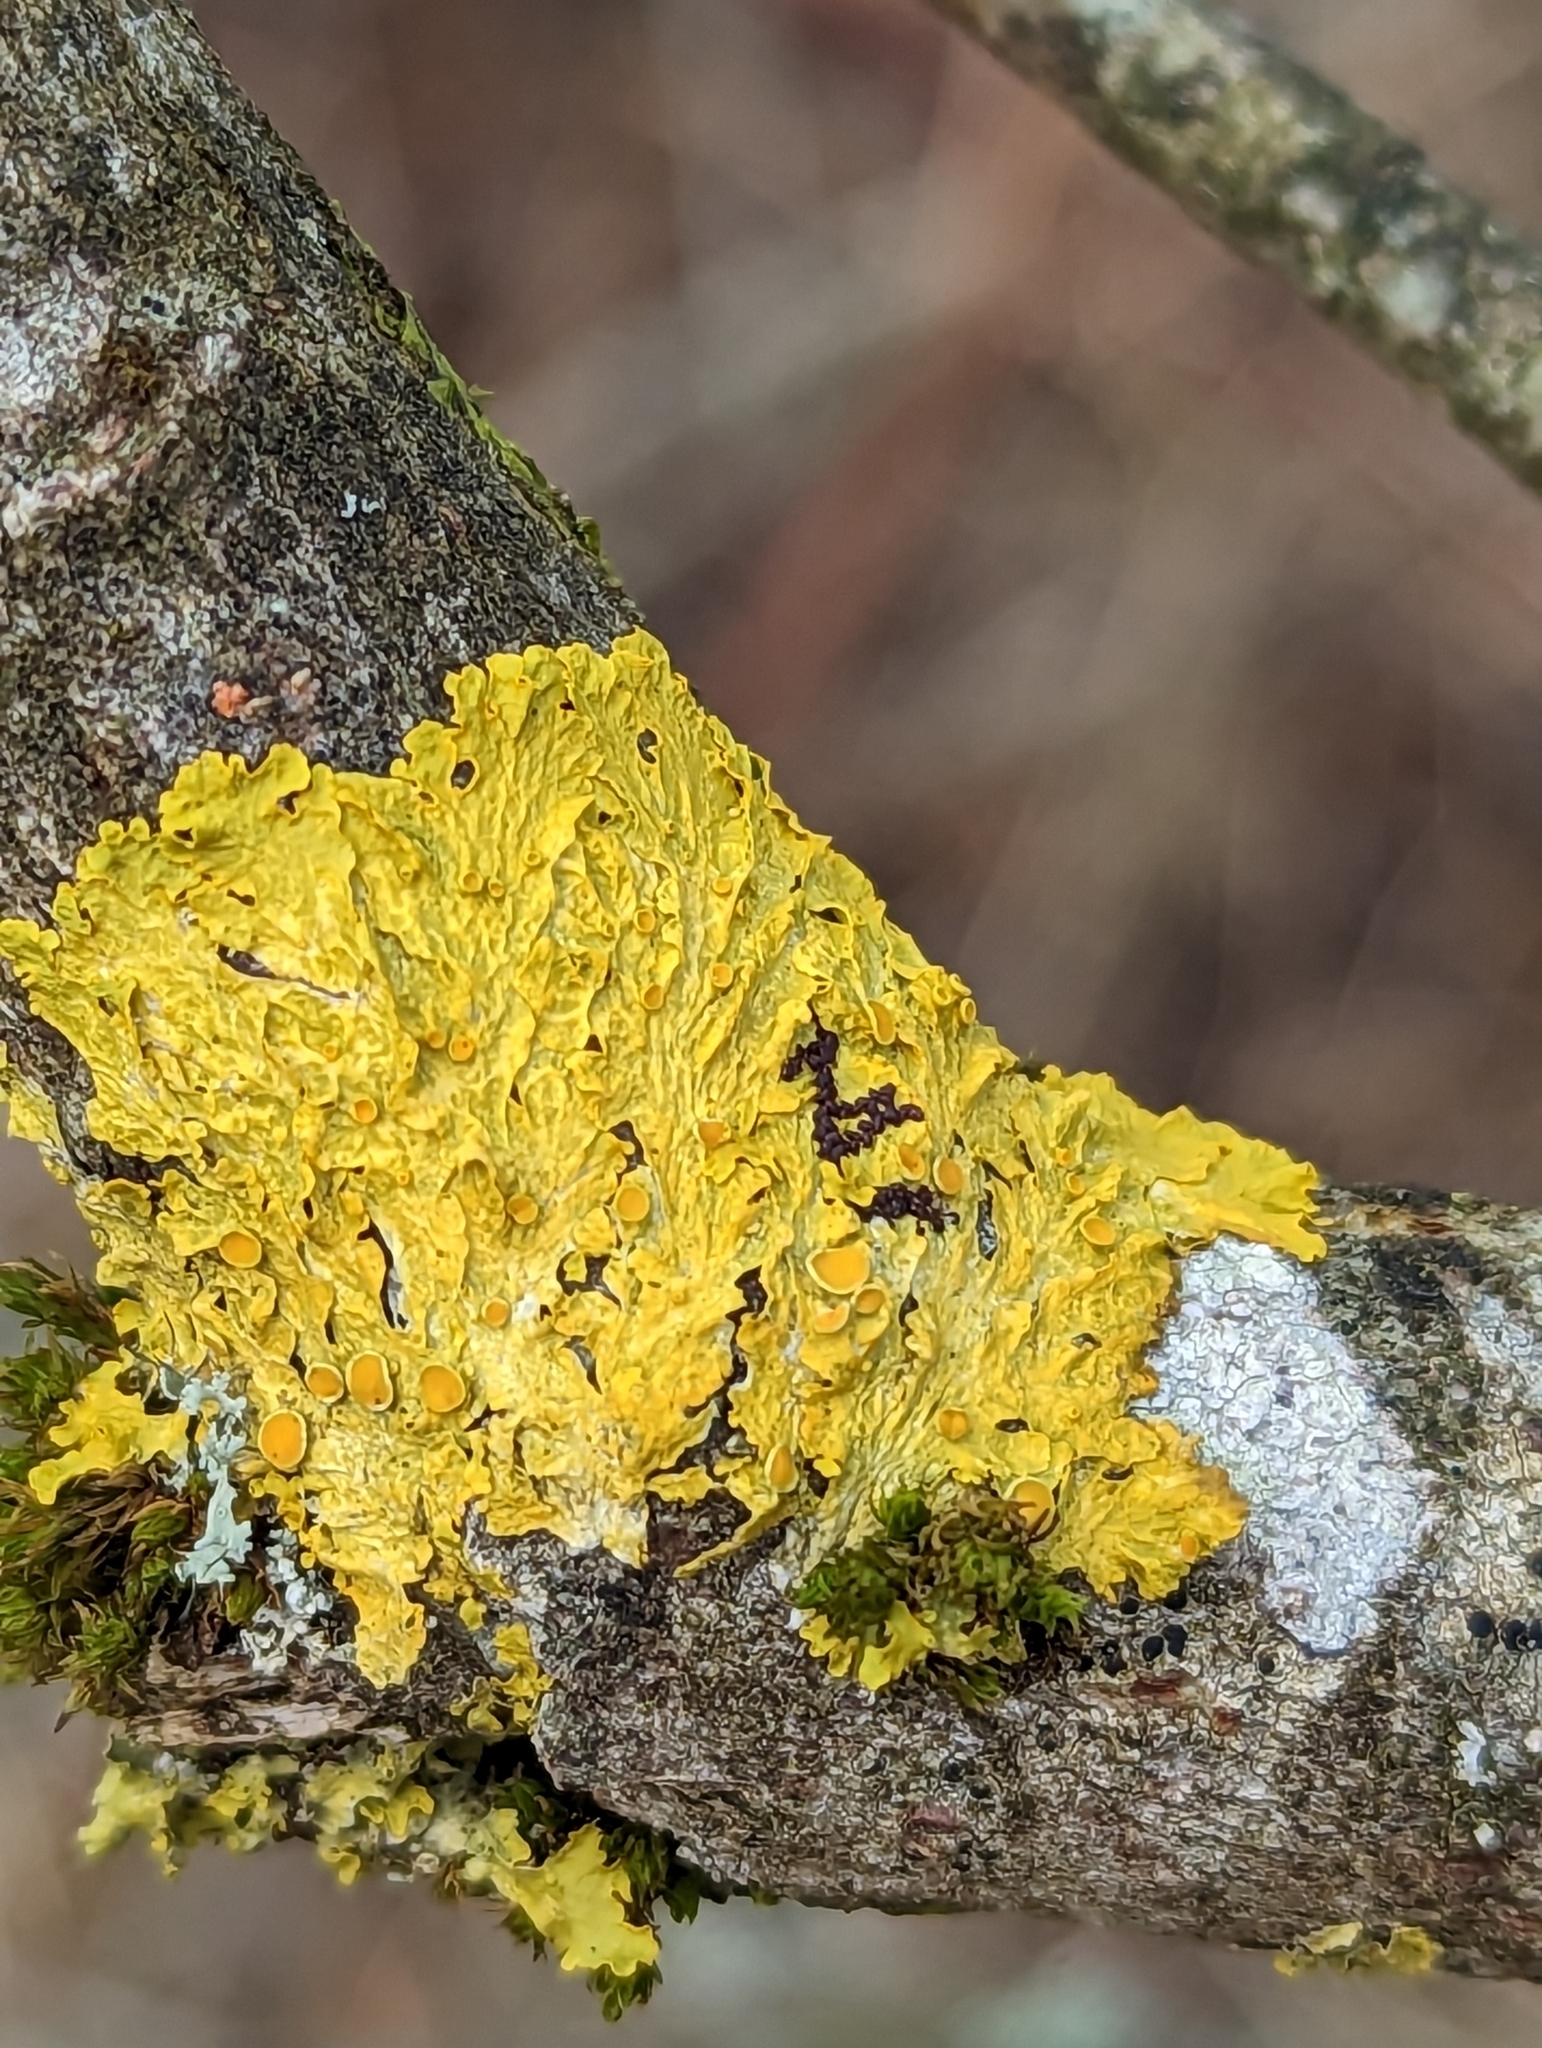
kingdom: Fungi
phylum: Ascomycota
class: Lecanoromycetes
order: Teloschistales
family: Teloschistaceae
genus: Xanthoria
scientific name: Xanthoria parietina
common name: Common orange lichen
